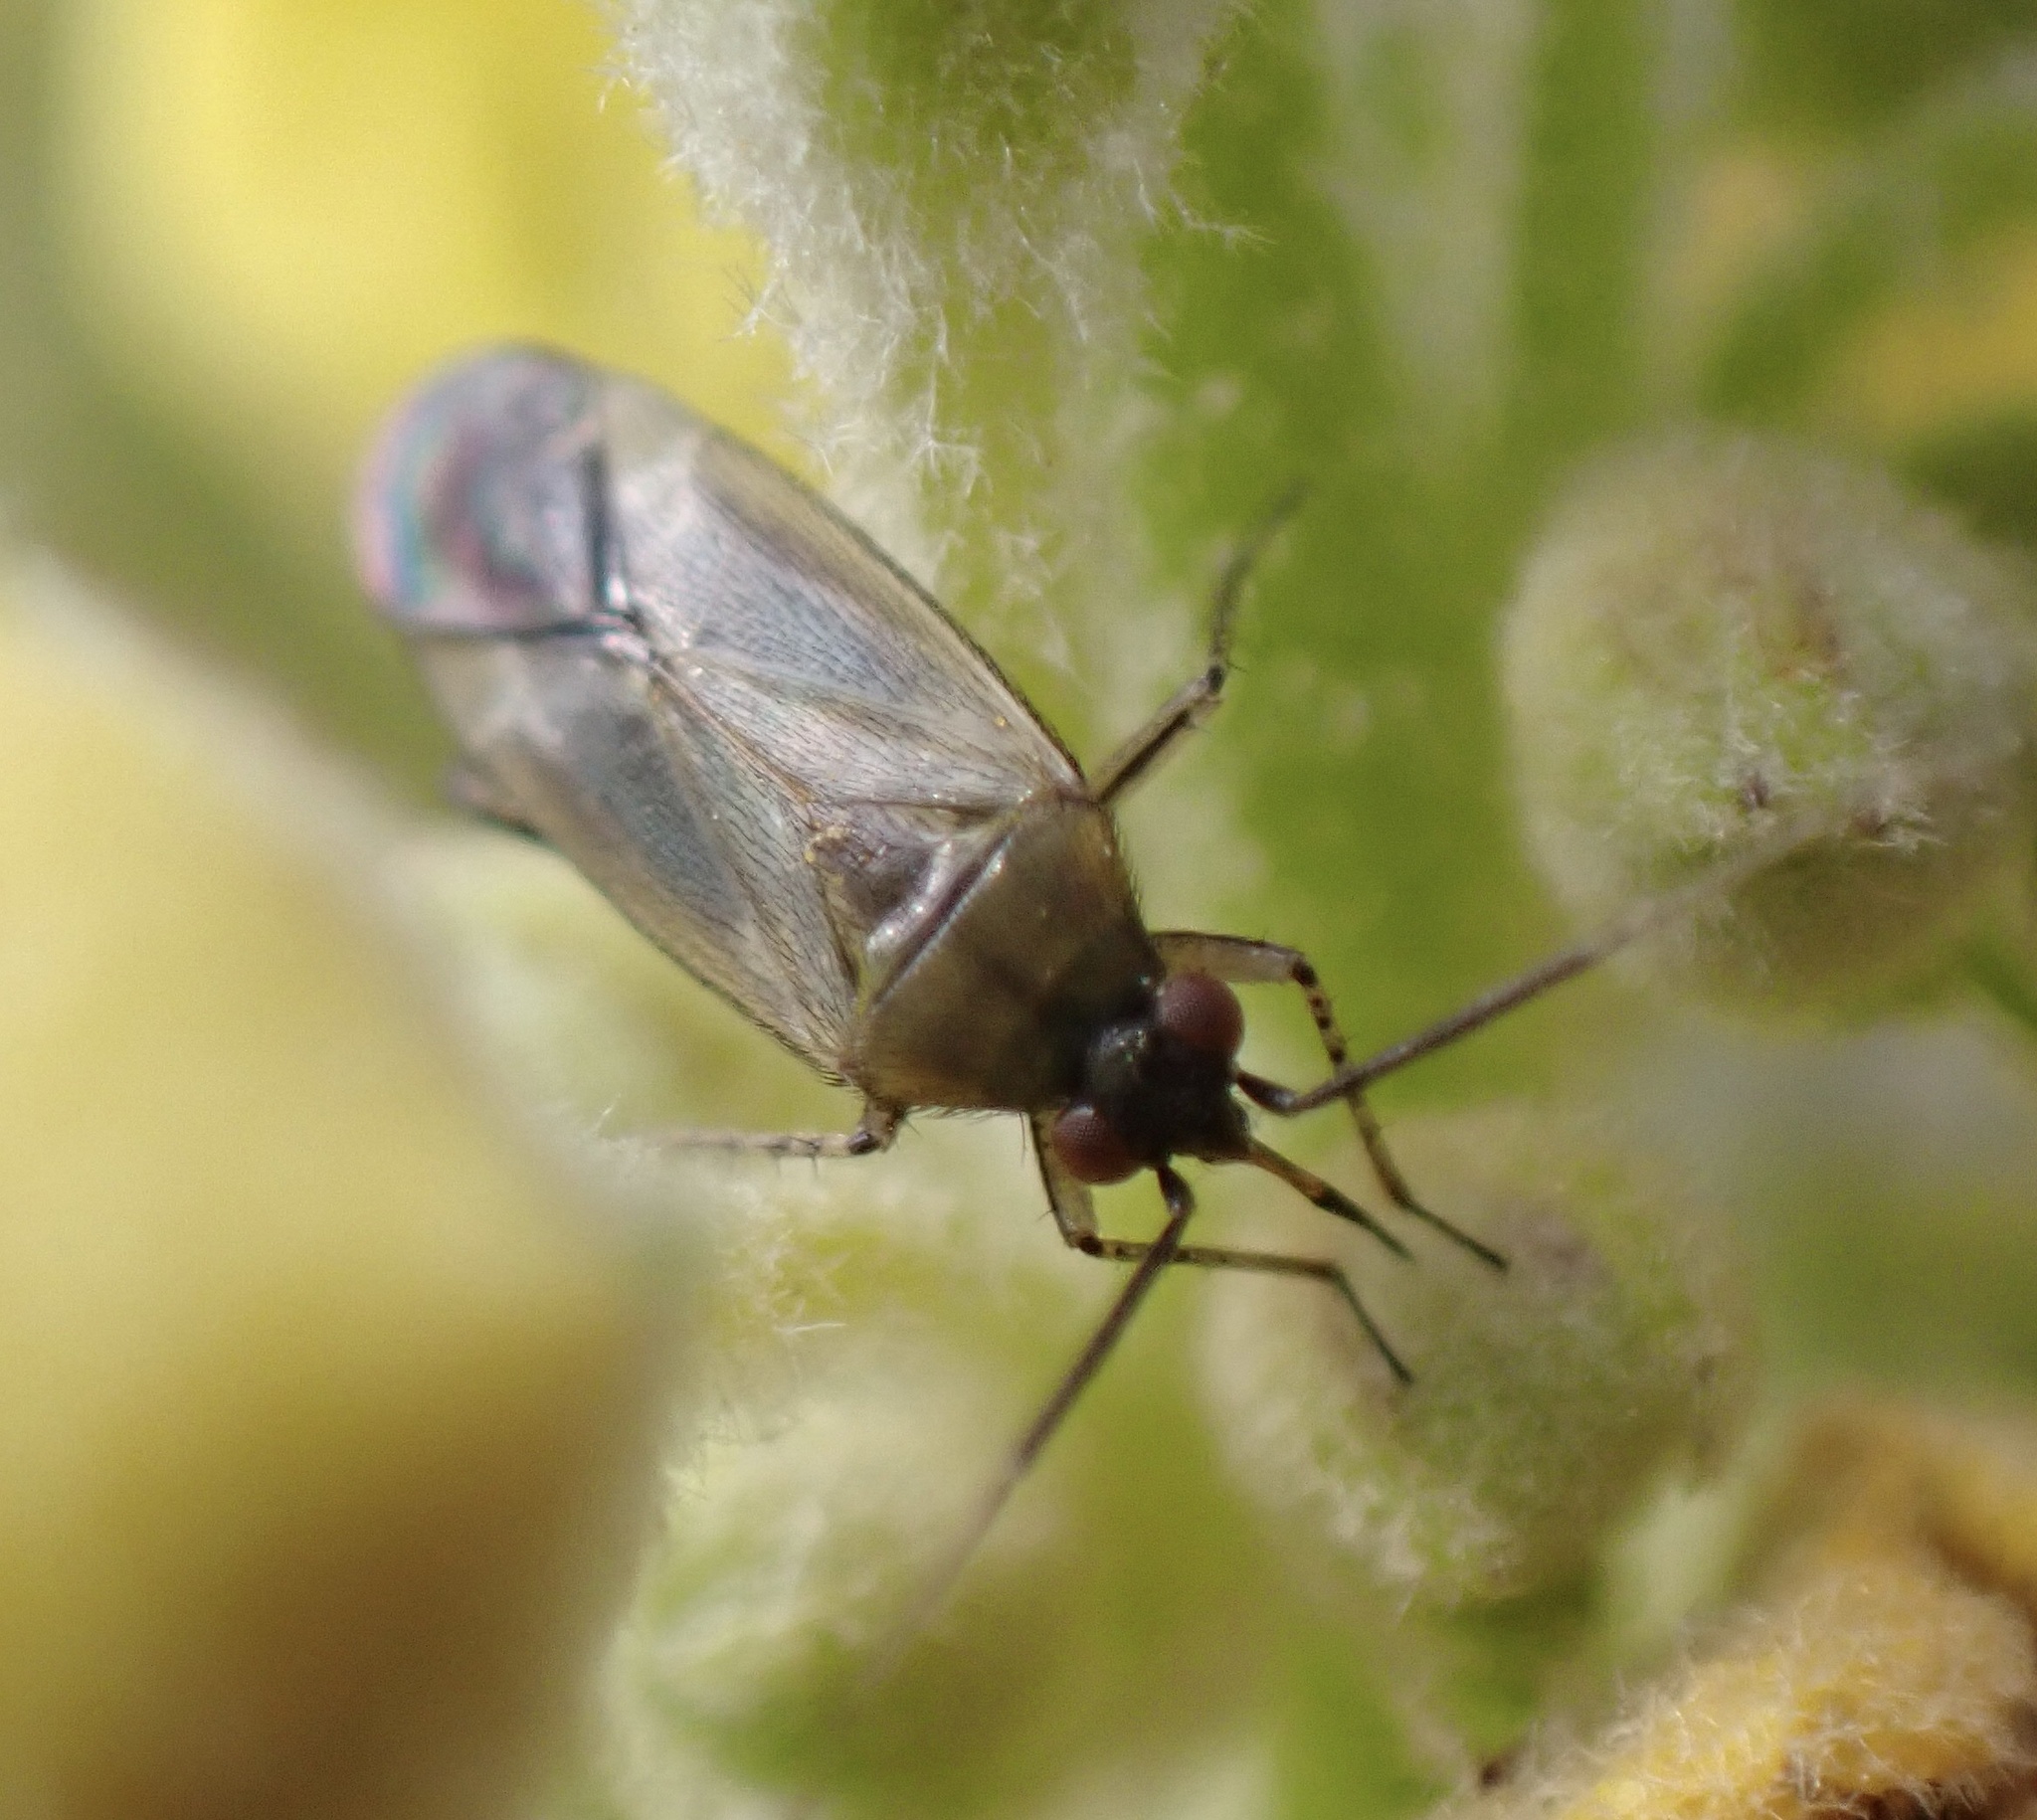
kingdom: Animalia
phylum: Arthropoda
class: Insecta
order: Hemiptera
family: Miridae
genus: Plagiognathus
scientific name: Plagiognathus arbustorum
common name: Plant bug
